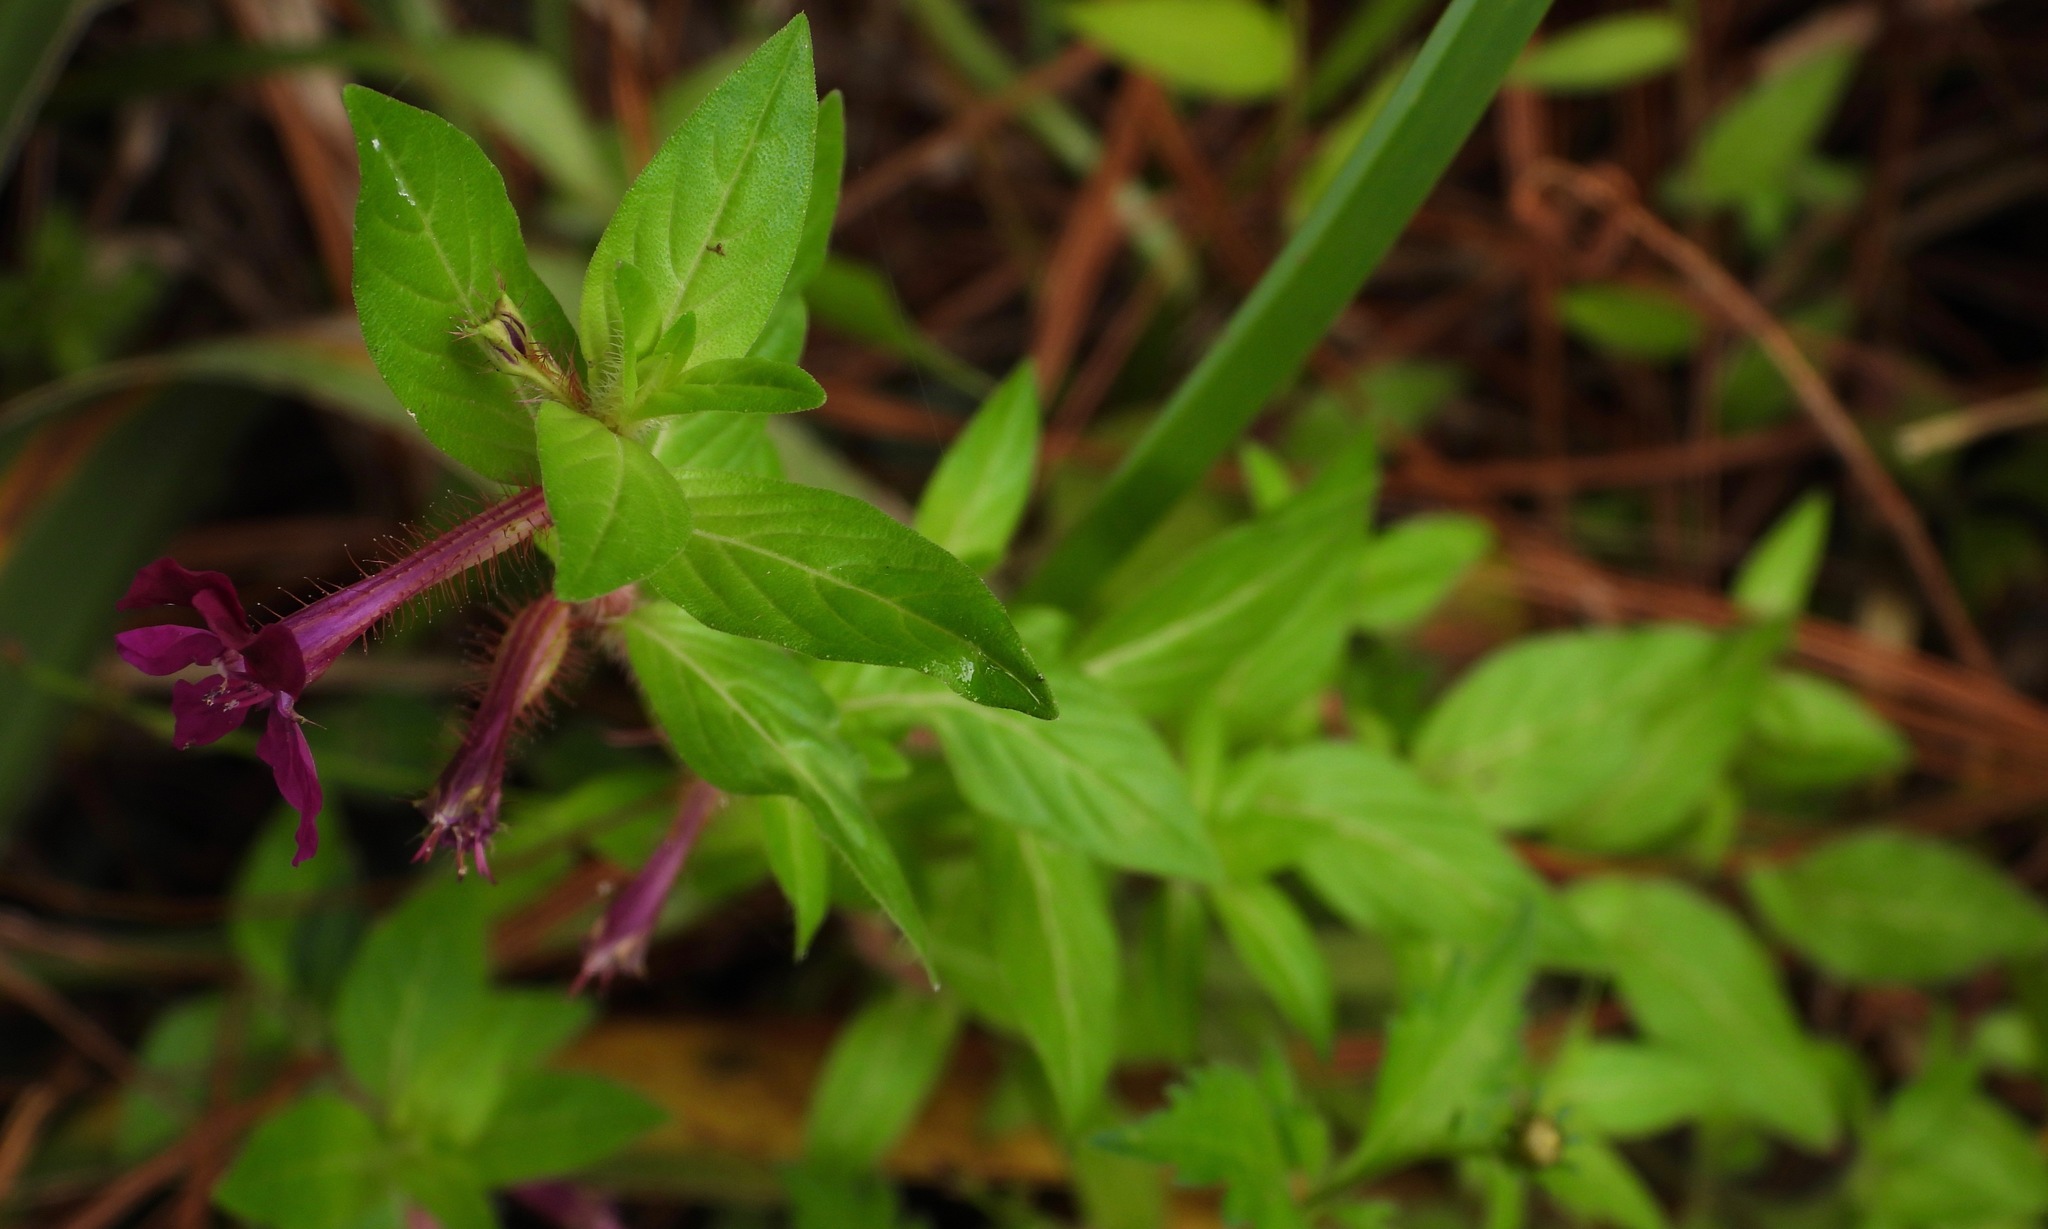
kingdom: Plantae
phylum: Tracheophyta
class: Magnoliopsida
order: Myrtales
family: Lythraceae
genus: Cuphea
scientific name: Cuphea aequipetala
